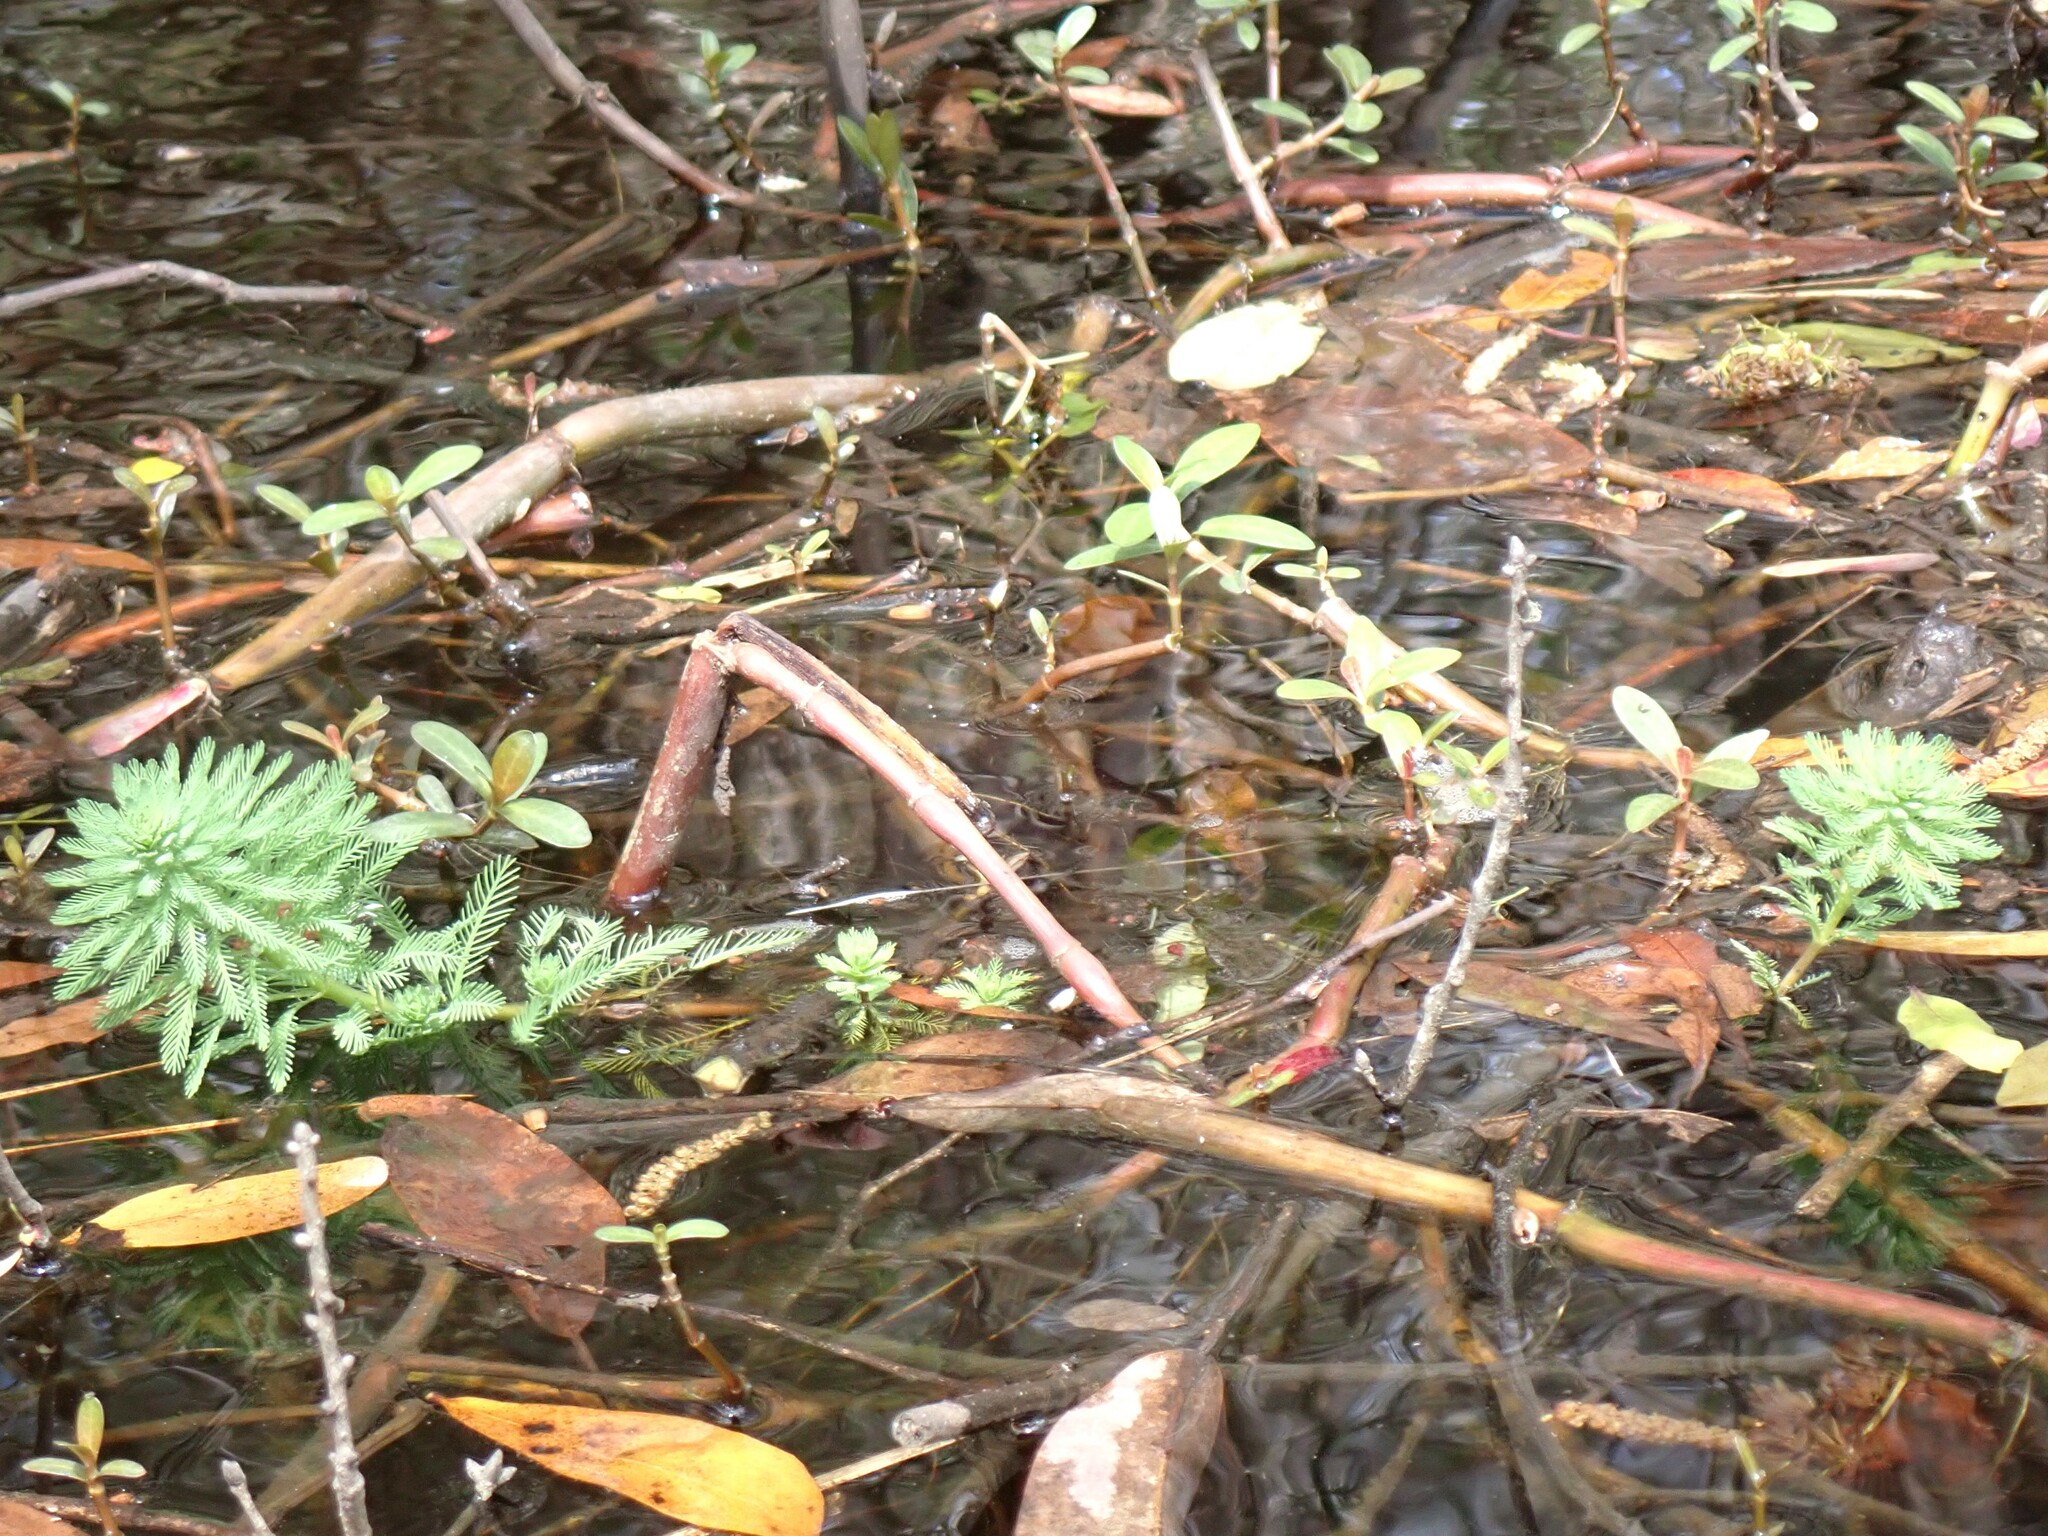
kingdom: Plantae
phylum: Tracheophyta
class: Magnoliopsida
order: Saxifragales
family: Haloragaceae
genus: Myriophyllum
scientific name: Myriophyllum aquaticum
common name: Parrot's feather
